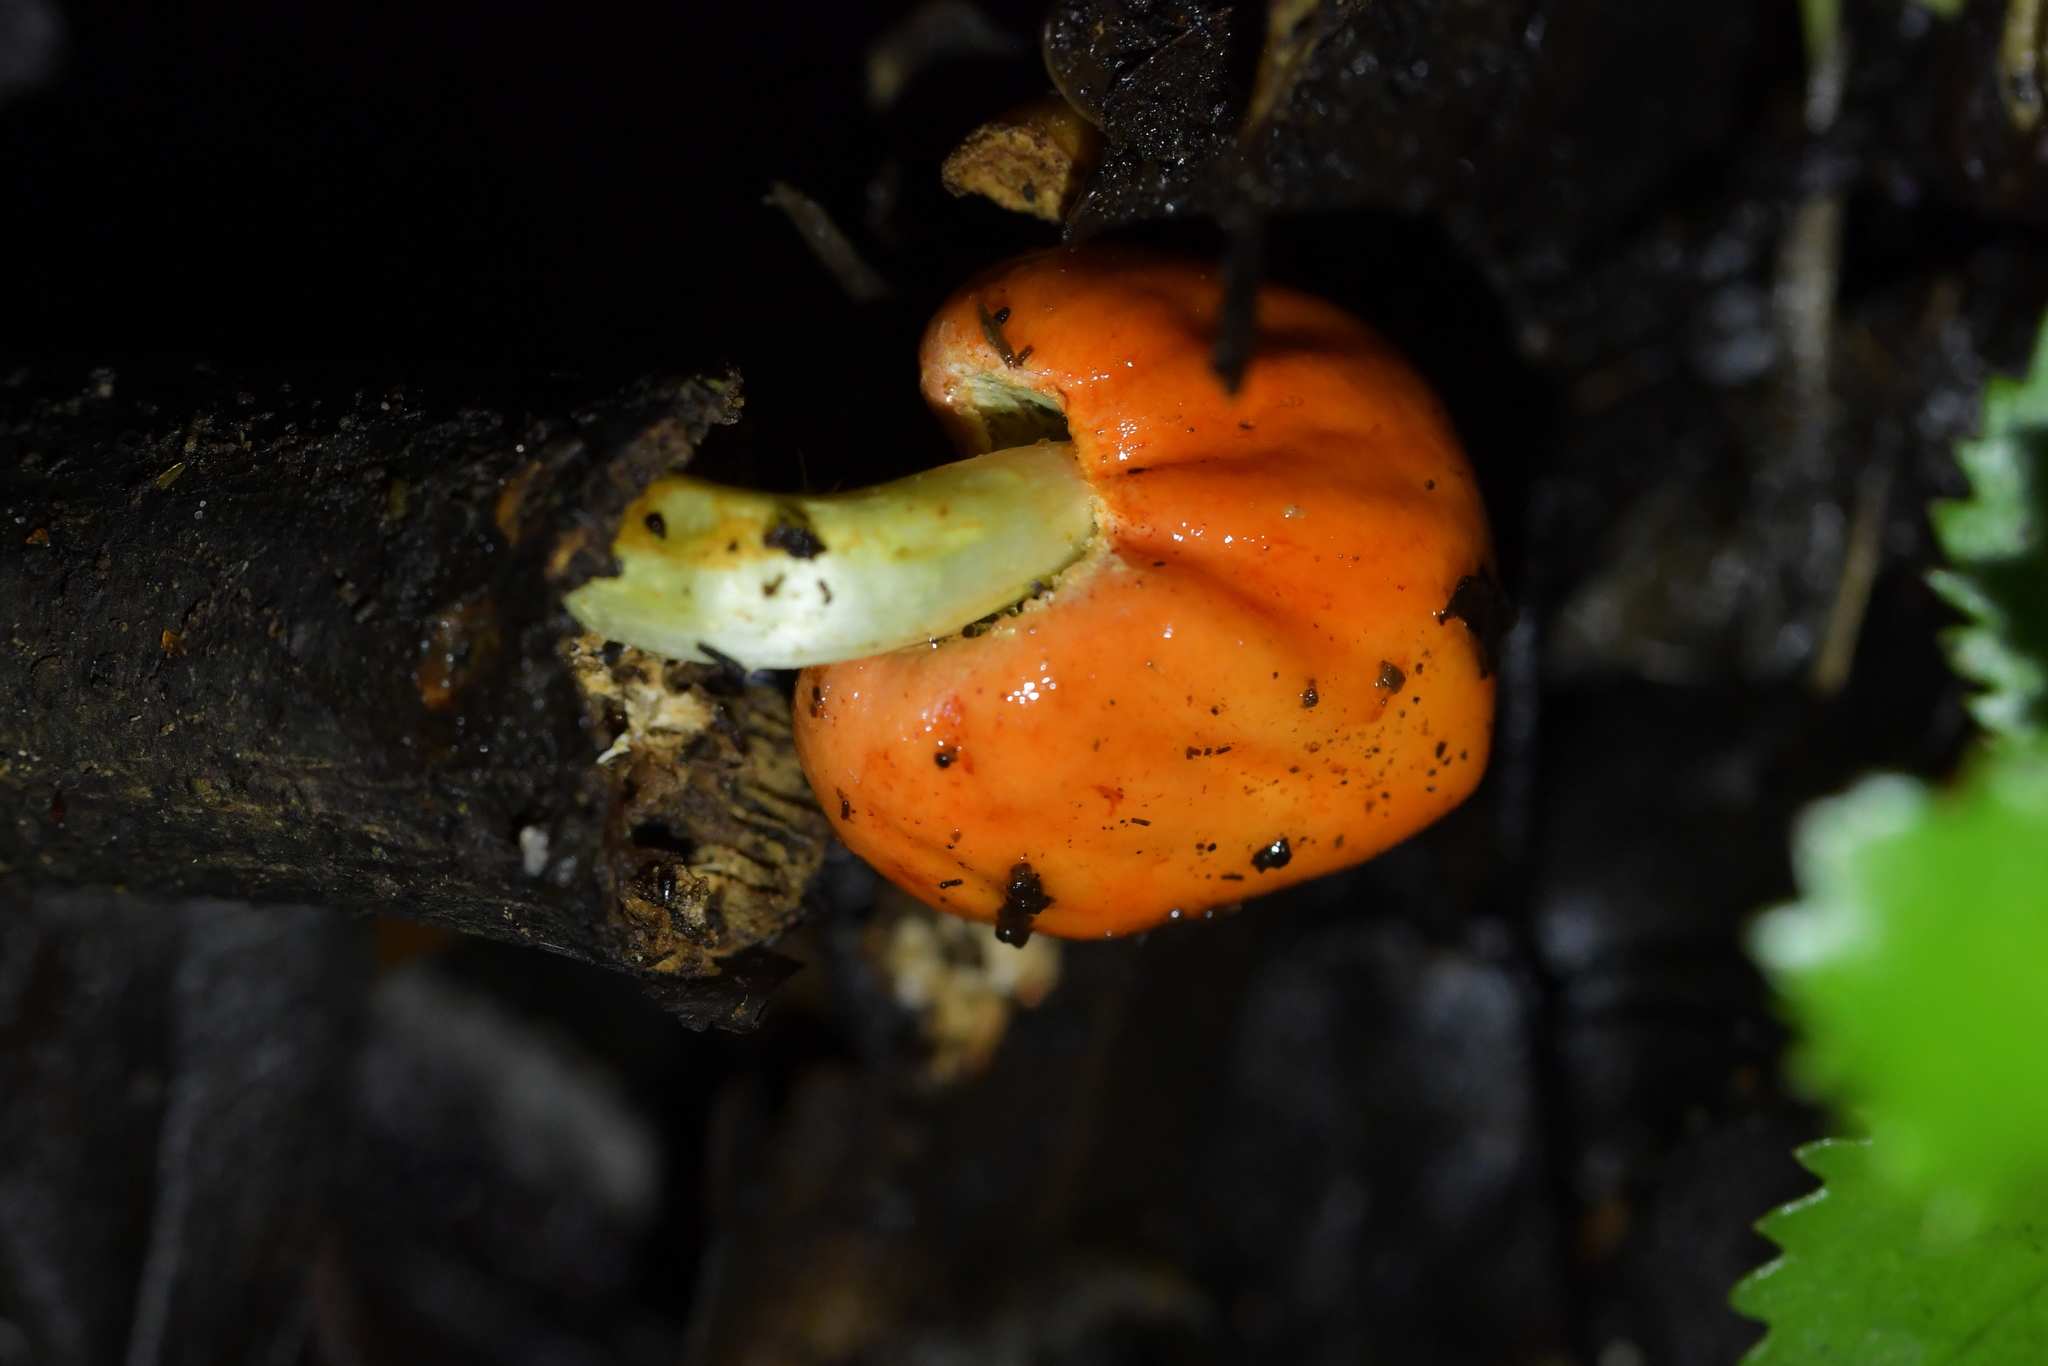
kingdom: Fungi
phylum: Basidiomycota
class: Agaricomycetes
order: Agaricales
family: Strophariaceae
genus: Leratiomyces
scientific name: Leratiomyces erythrocephalus
